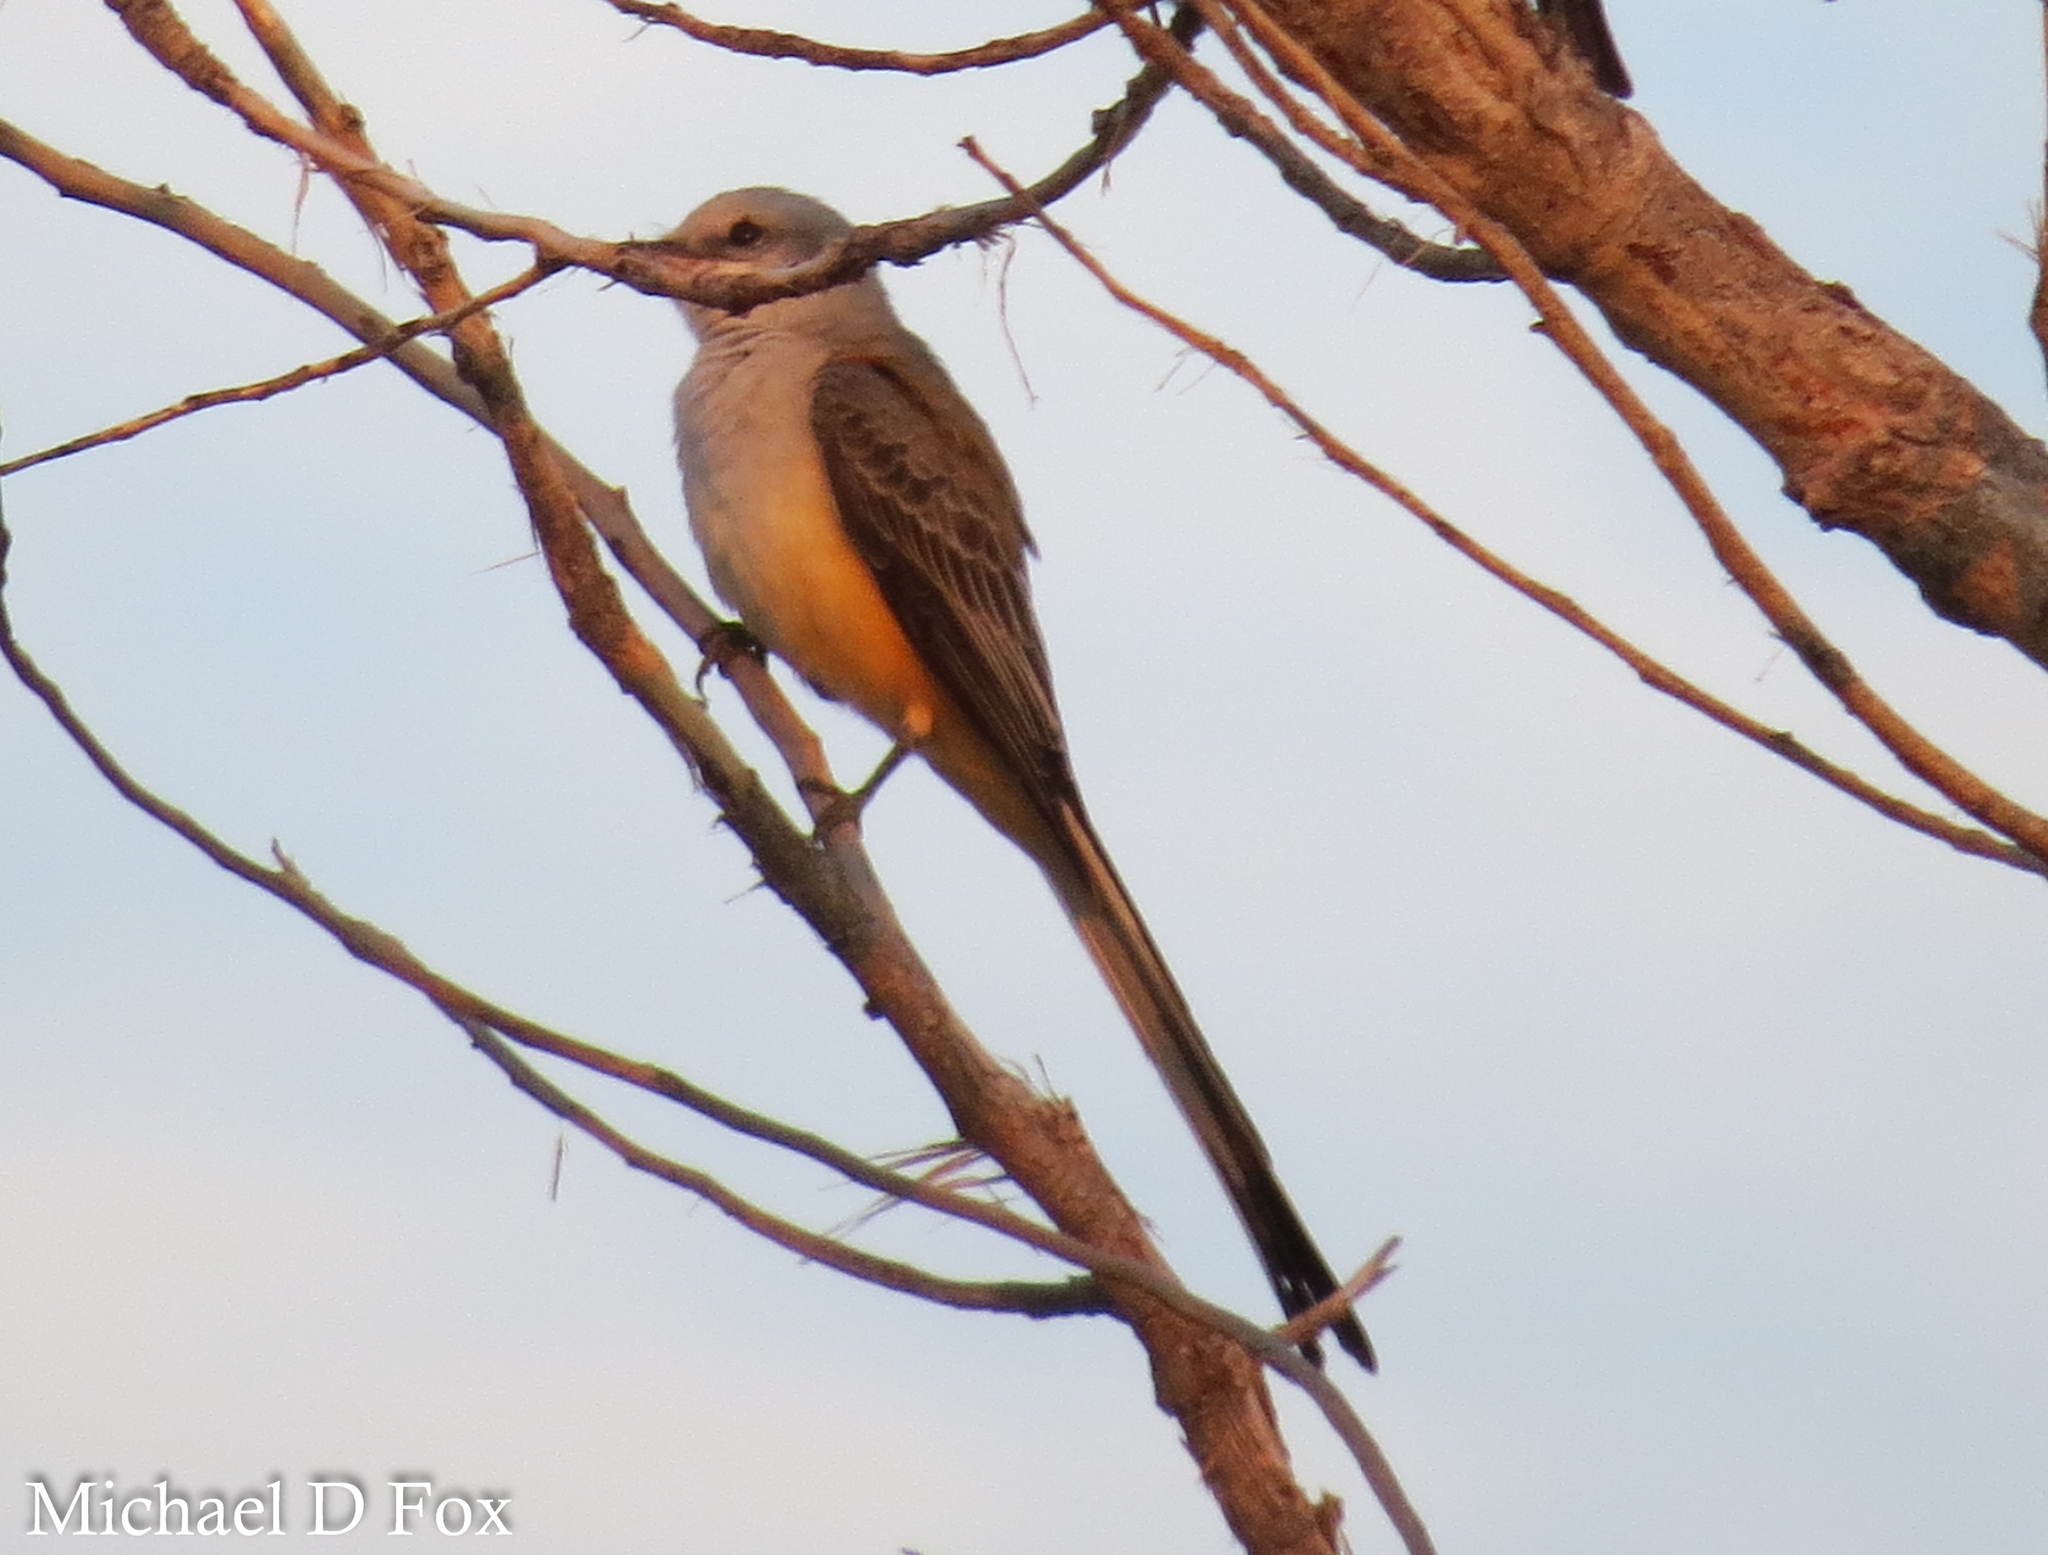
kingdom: Animalia
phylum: Chordata
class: Aves
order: Passeriformes
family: Tyrannidae
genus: Tyrannus
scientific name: Tyrannus forficatus
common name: Scissor-tailed flycatcher
